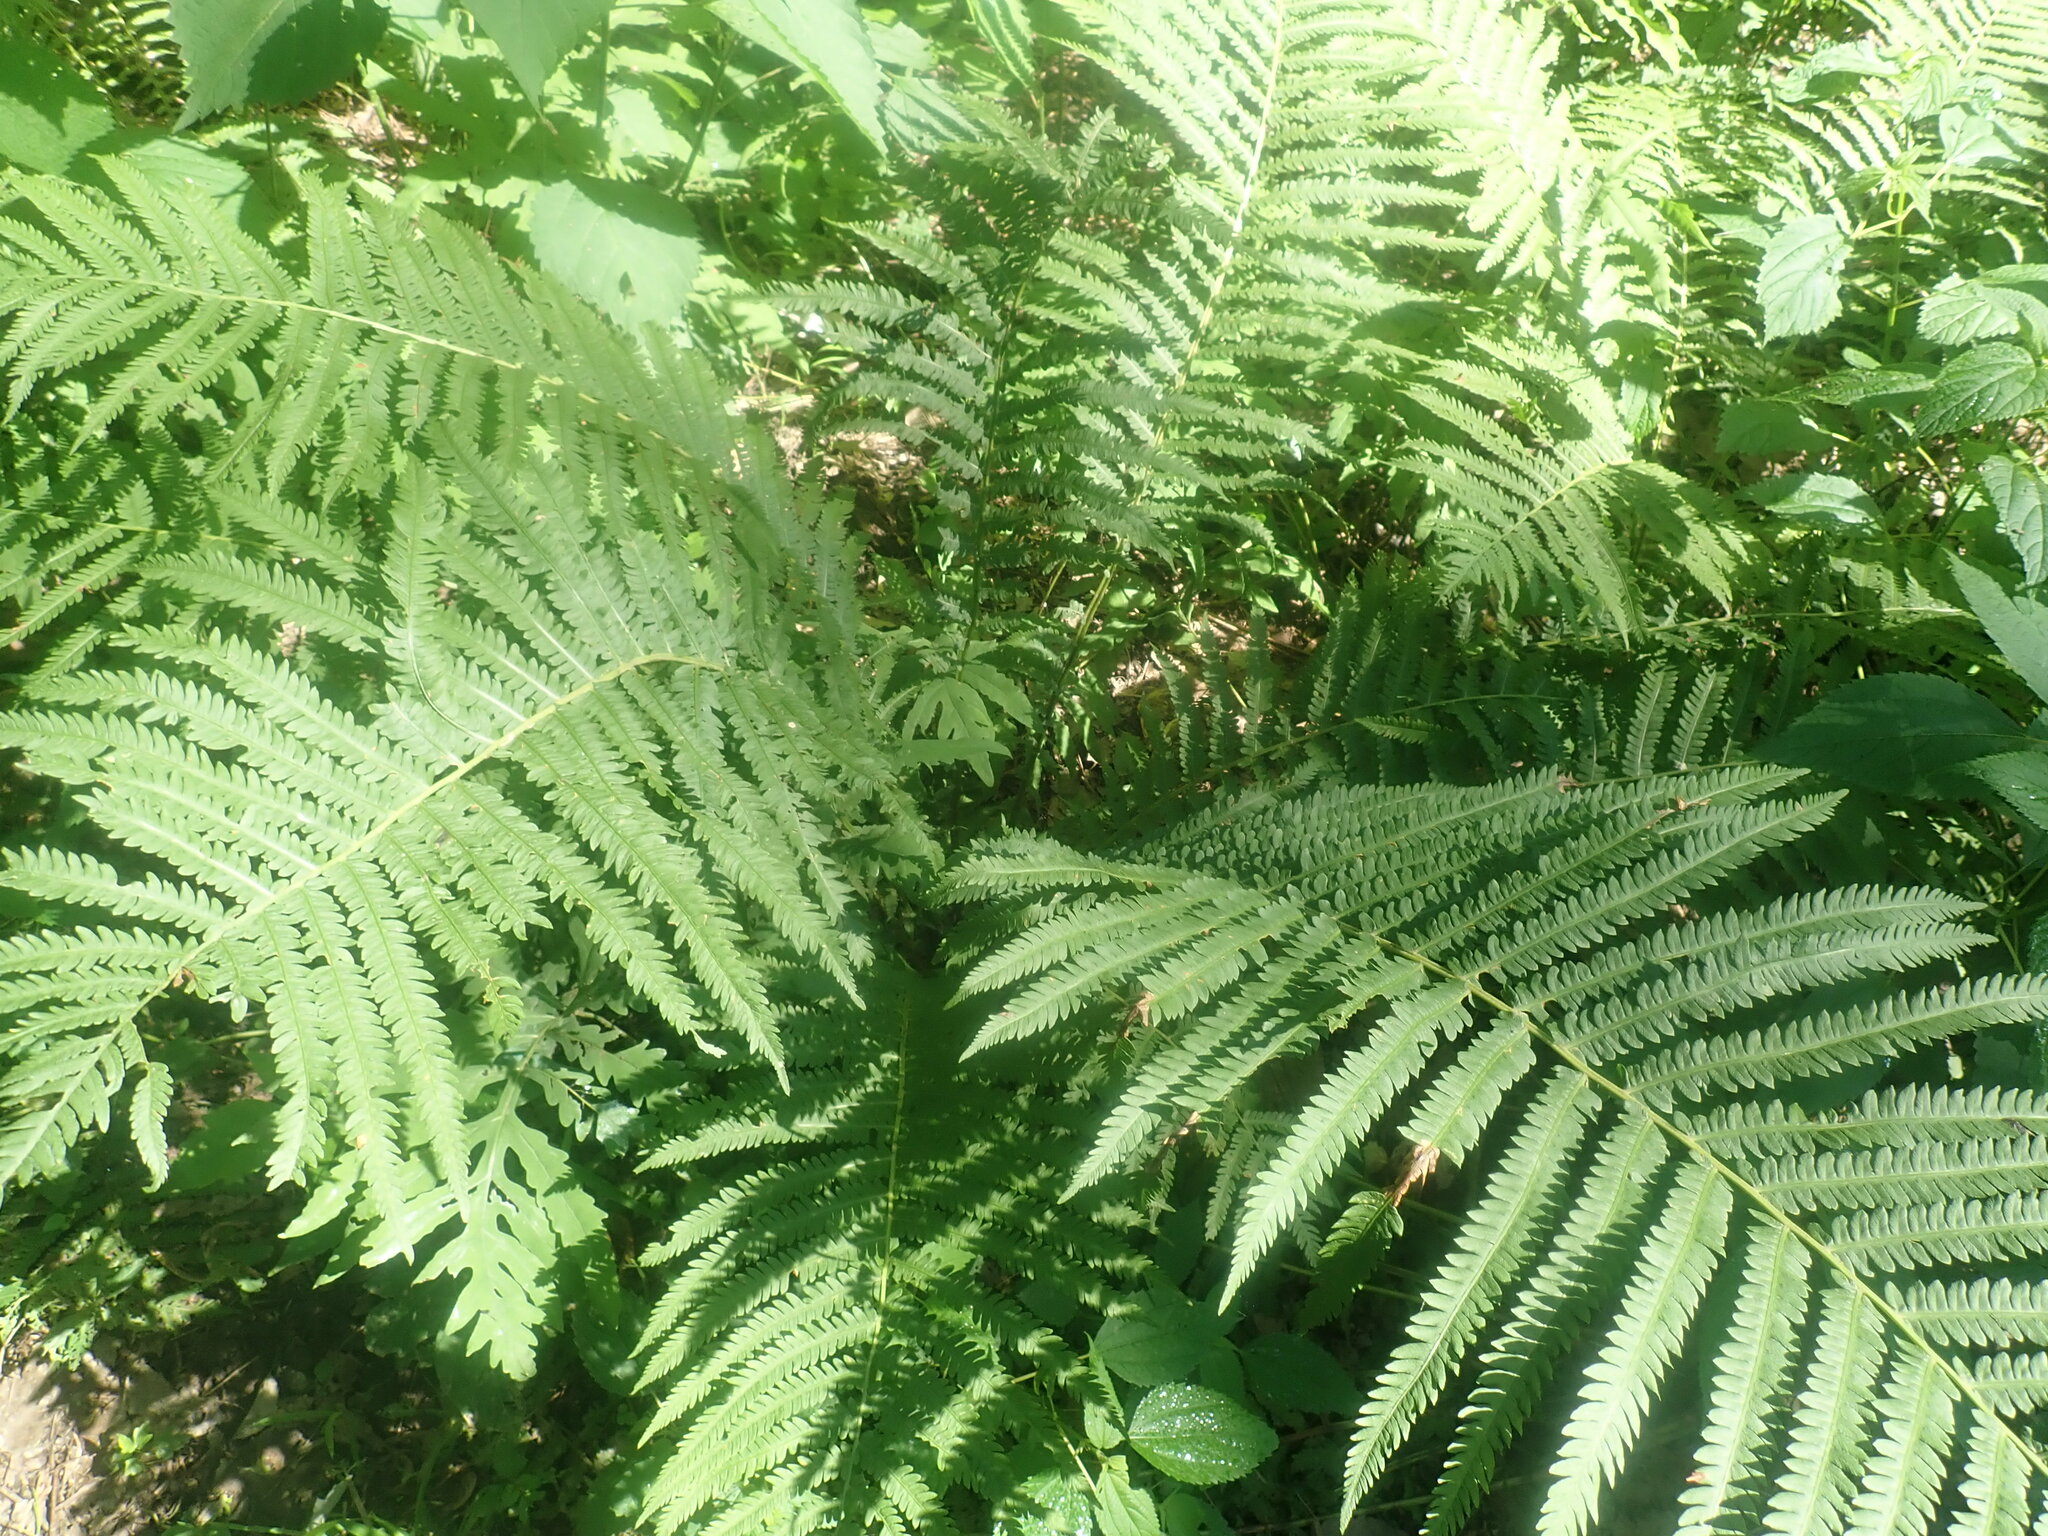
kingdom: Plantae
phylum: Tracheophyta
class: Polypodiopsida
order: Polypodiales
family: Onocleaceae
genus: Matteuccia
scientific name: Matteuccia struthiopteris
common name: Ostrich fern
